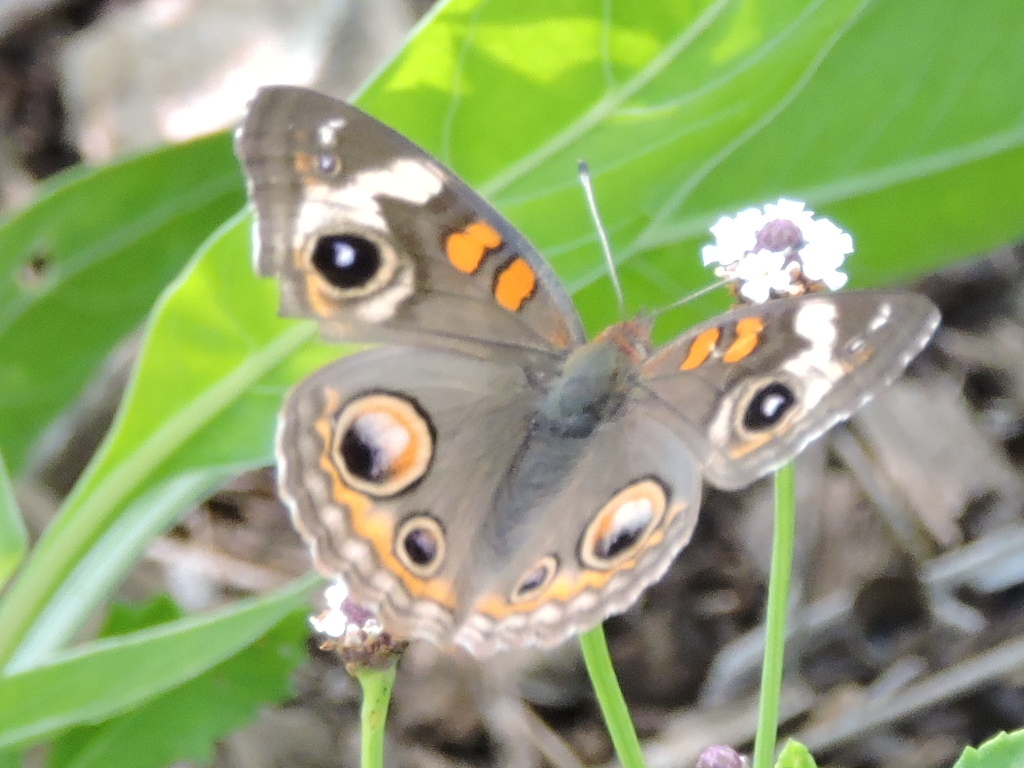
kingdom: Animalia
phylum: Arthropoda
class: Insecta
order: Lepidoptera
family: Nymphalidae
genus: Junonia
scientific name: Junonia coenia
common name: Common buckeye
